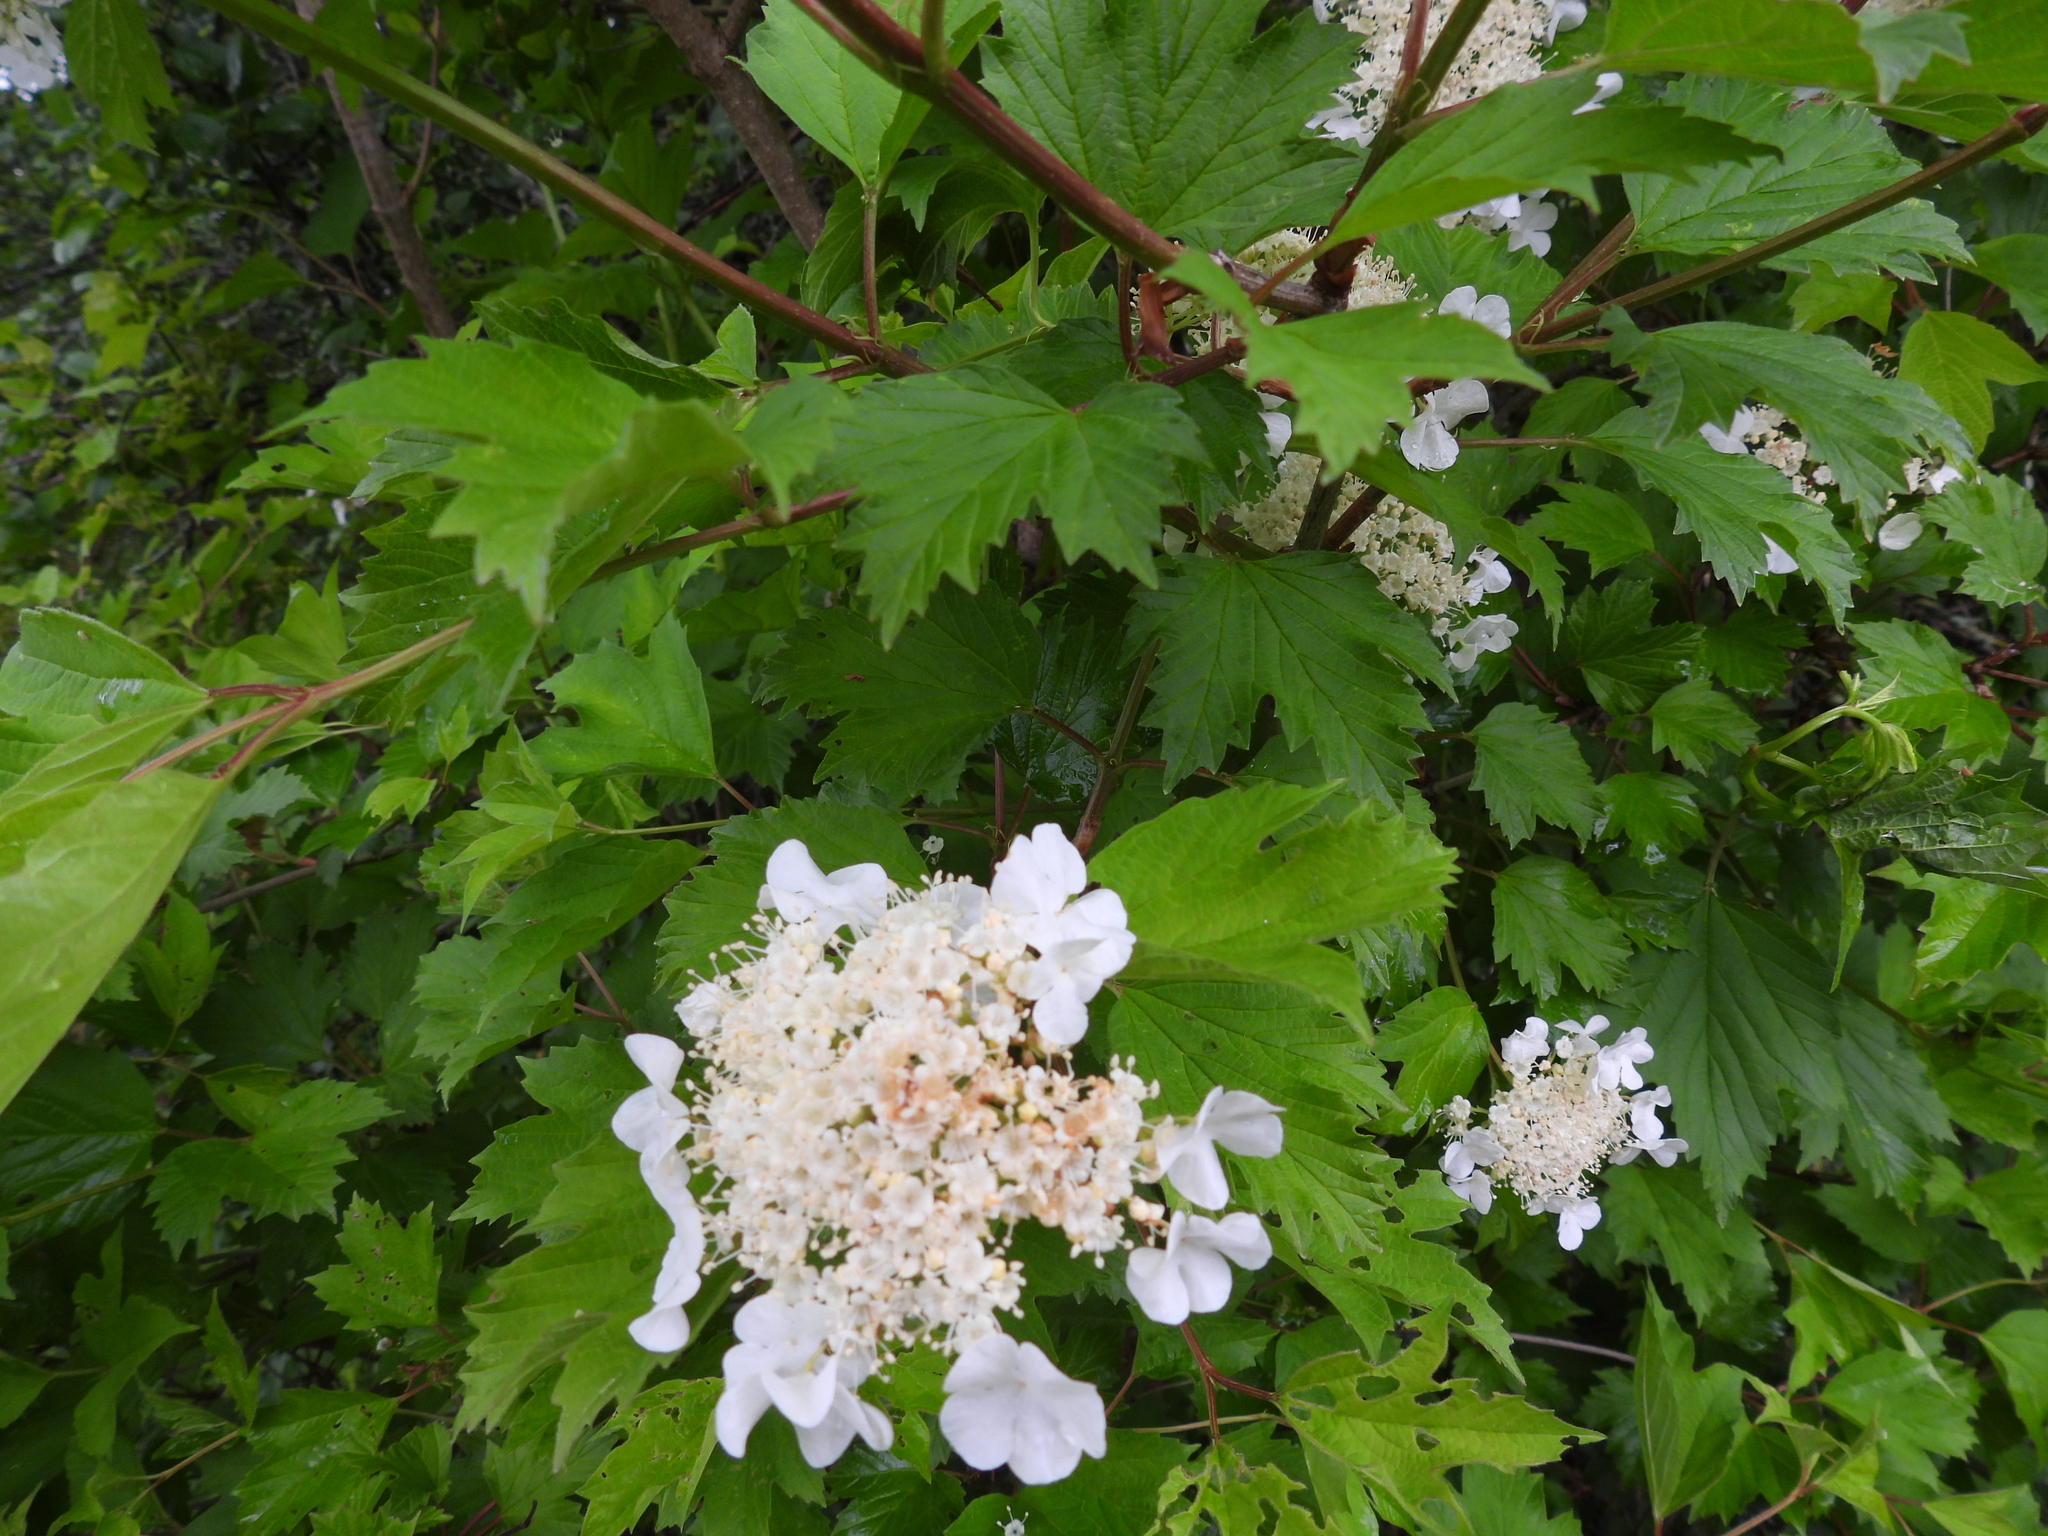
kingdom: Plantae
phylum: Tracheophyta
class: Magnoliopsida
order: Dipsacales
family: Viburnaceae
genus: Viburnum
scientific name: Viburnum opulus
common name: Guelder-rose
